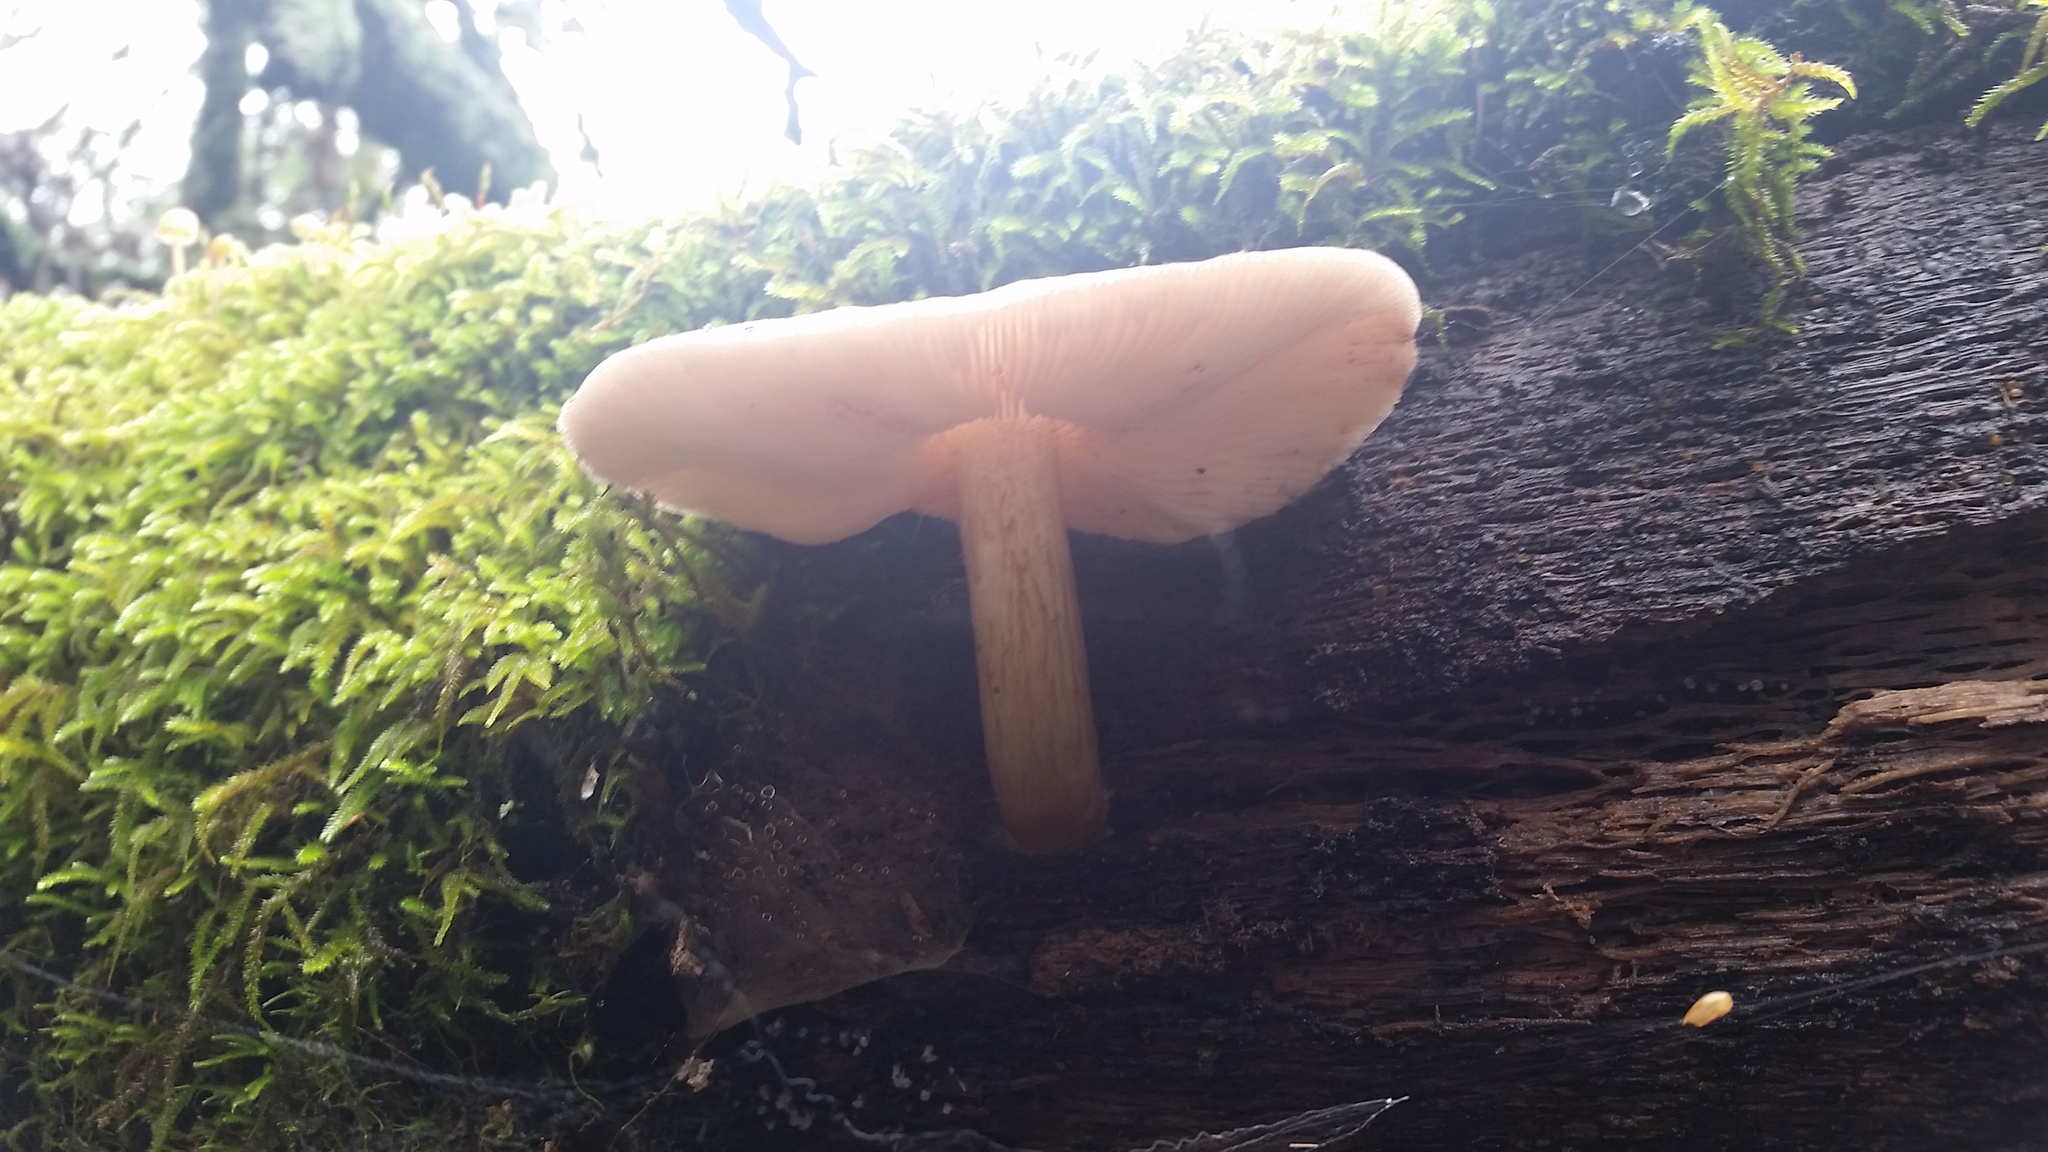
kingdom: Fungi
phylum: Basidiomycota
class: Agaricomycetes
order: Agaricales
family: Pluteaceae
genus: Pluteus
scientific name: Pluteus exilis
